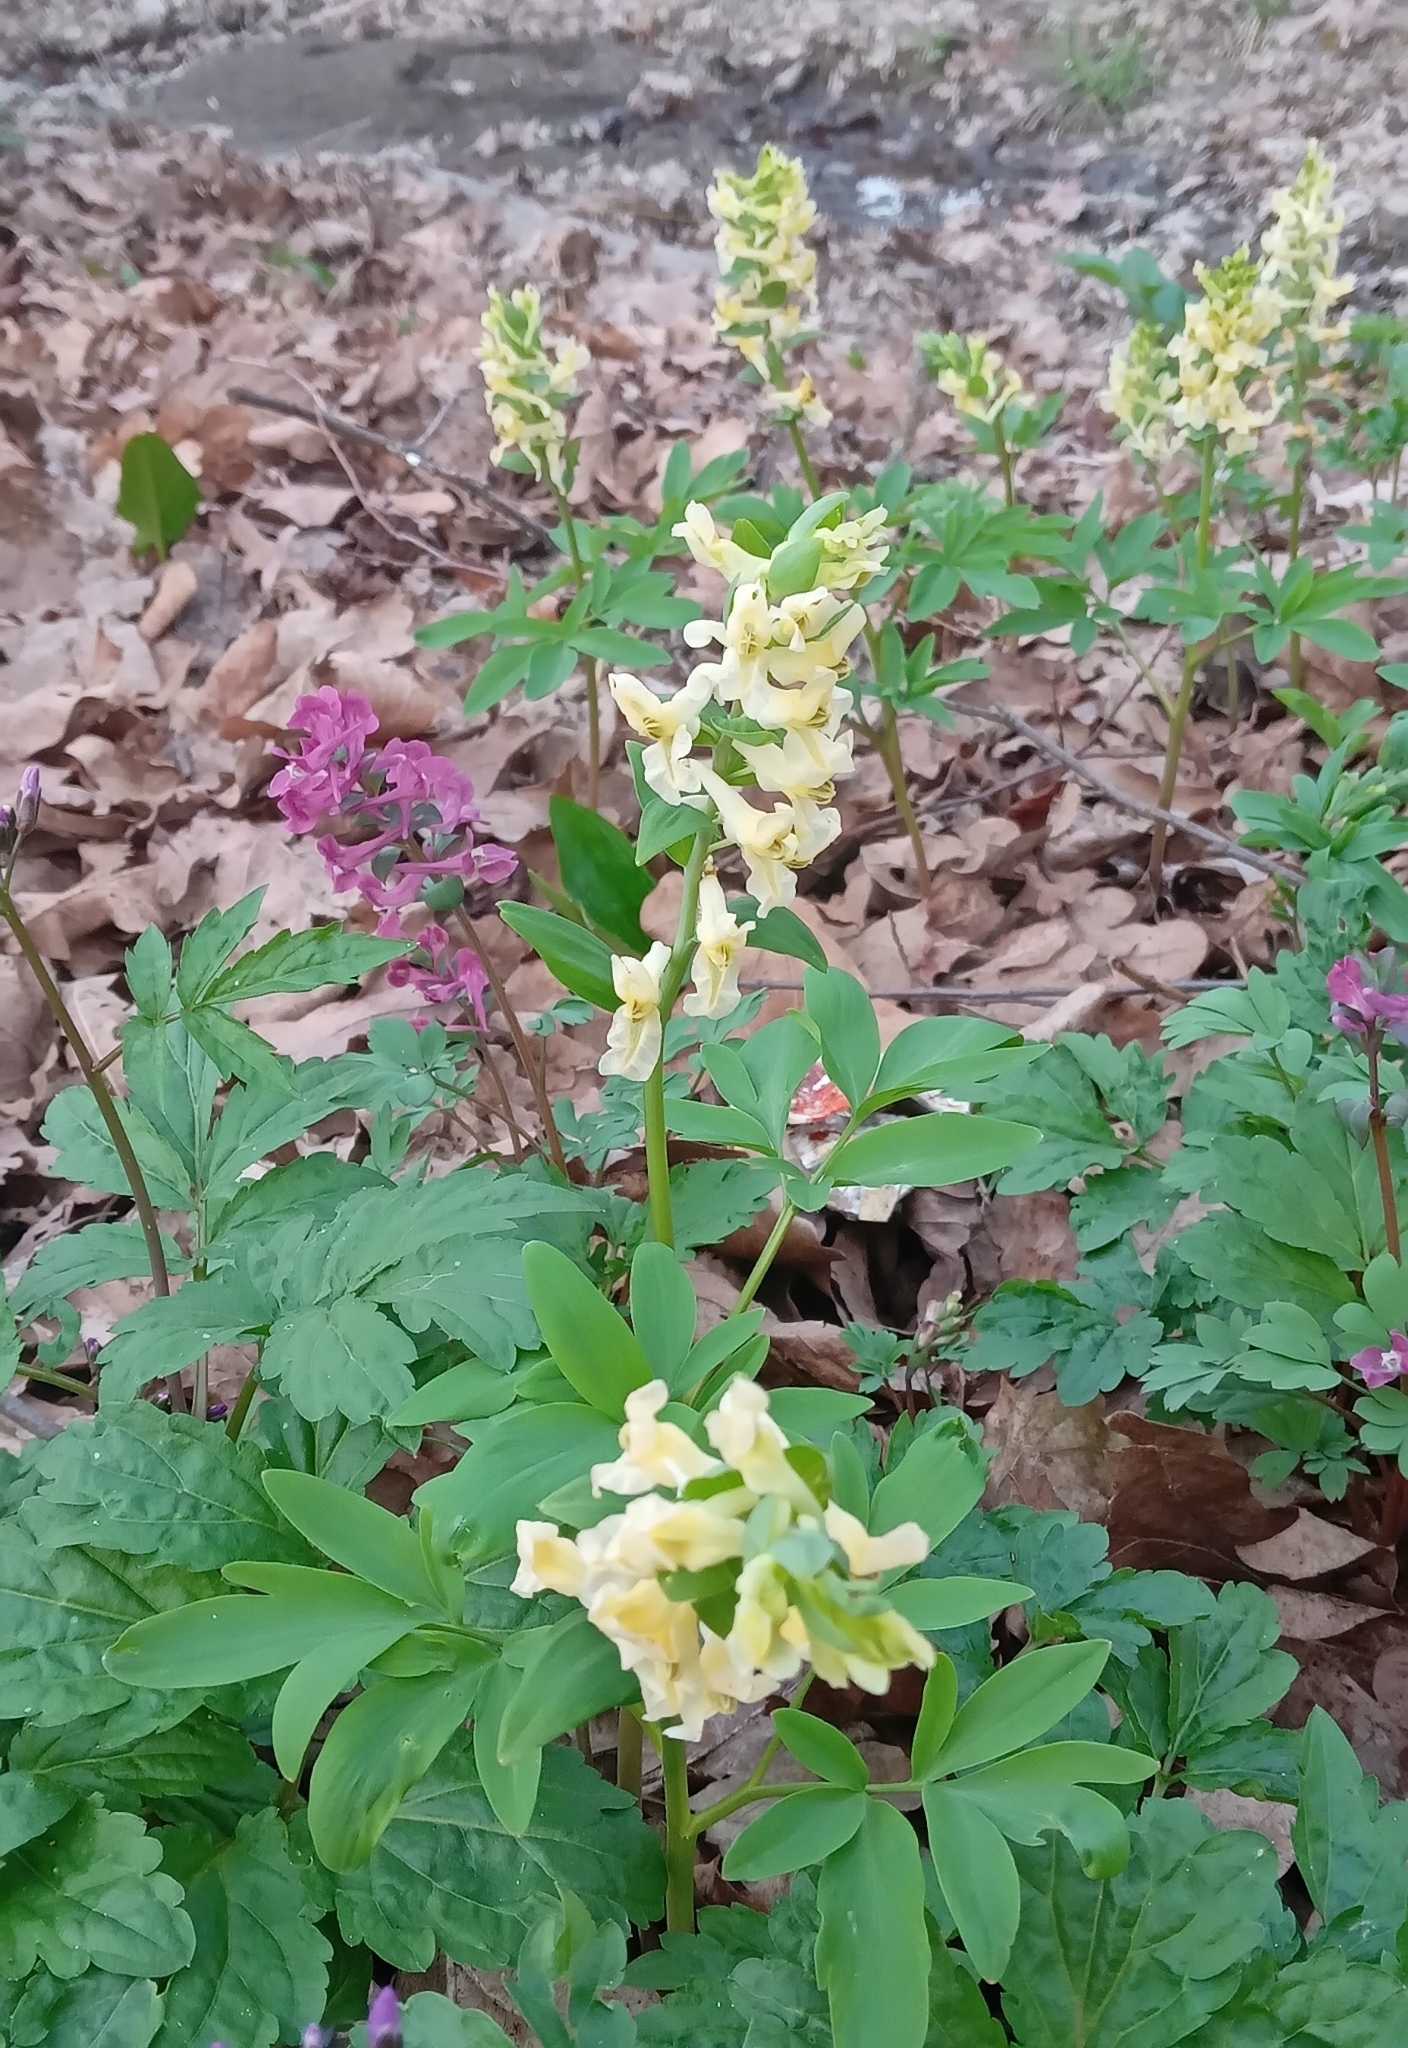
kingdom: Plantae
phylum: Tracheophyta
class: Magnoliopsida
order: Ranunculales
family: Papaveraceae
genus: Corydalis
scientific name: Corydalis cava
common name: Hollowroot
